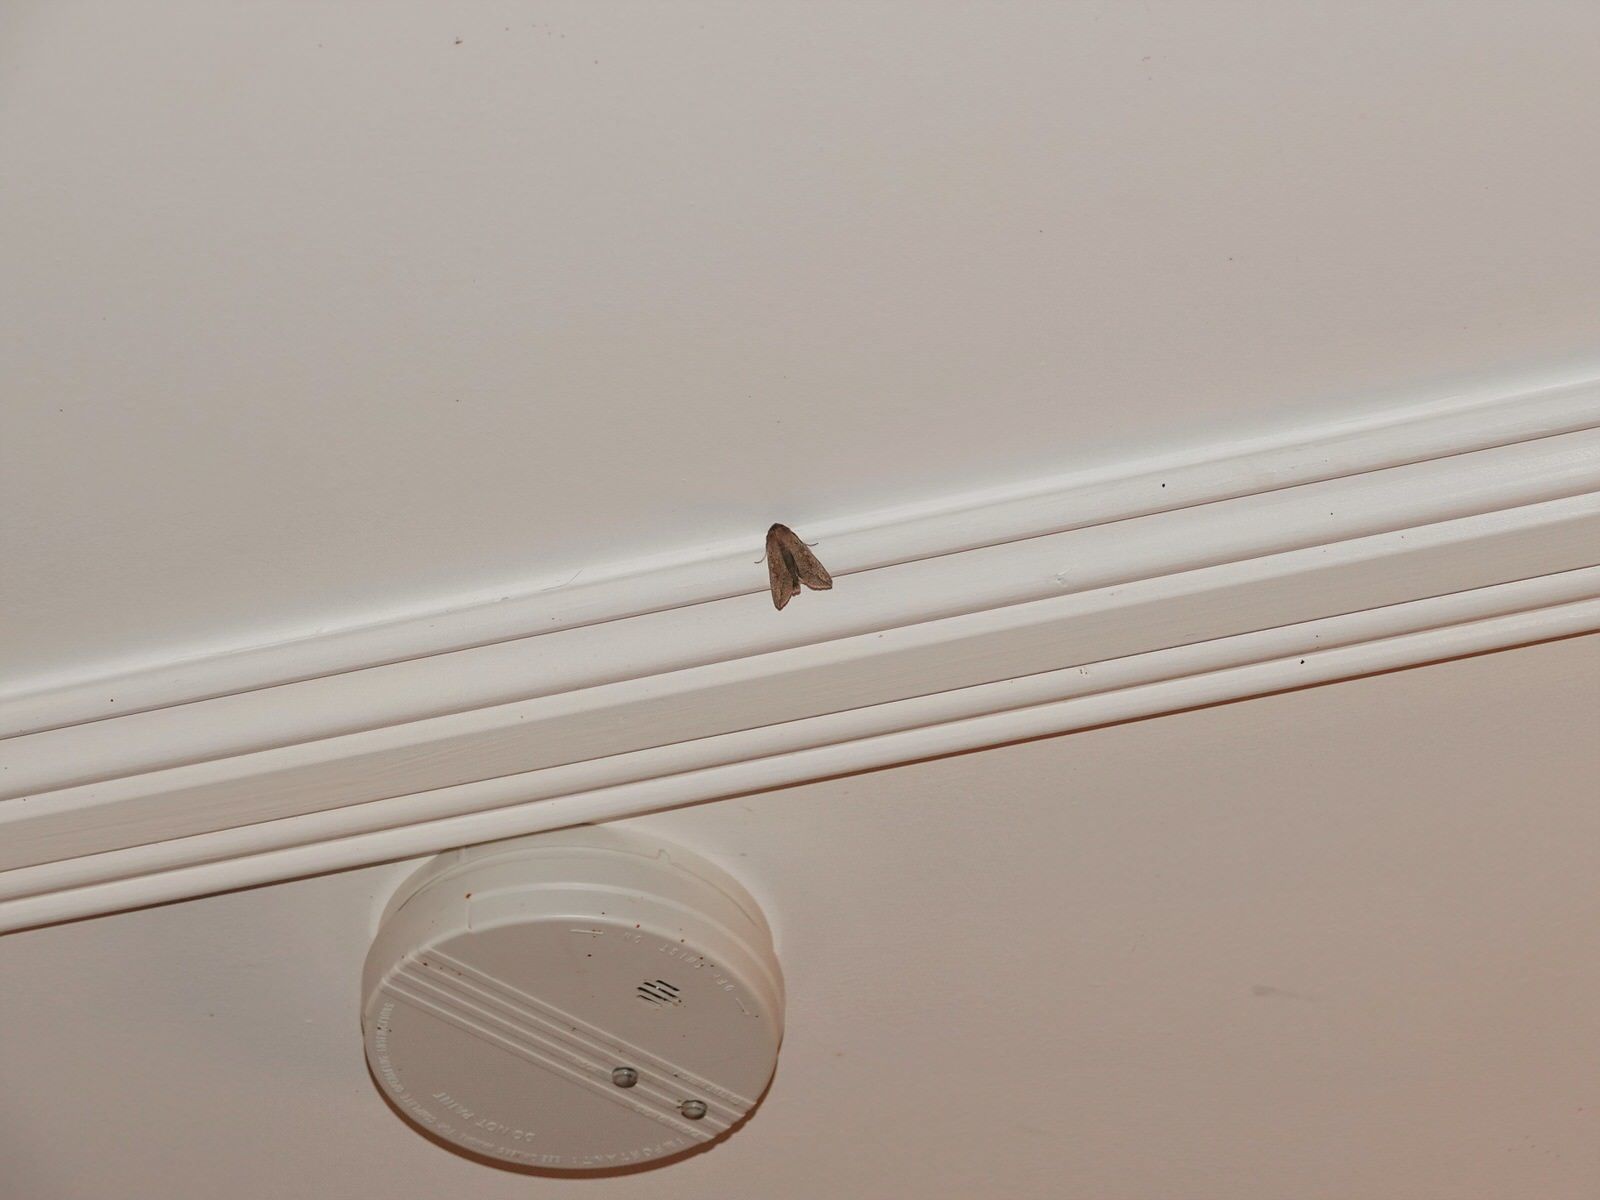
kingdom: Animalia
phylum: Arthropoda
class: Insecta
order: Lepidoptera
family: Noctuidae
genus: Mythimna
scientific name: Mythimna separata
